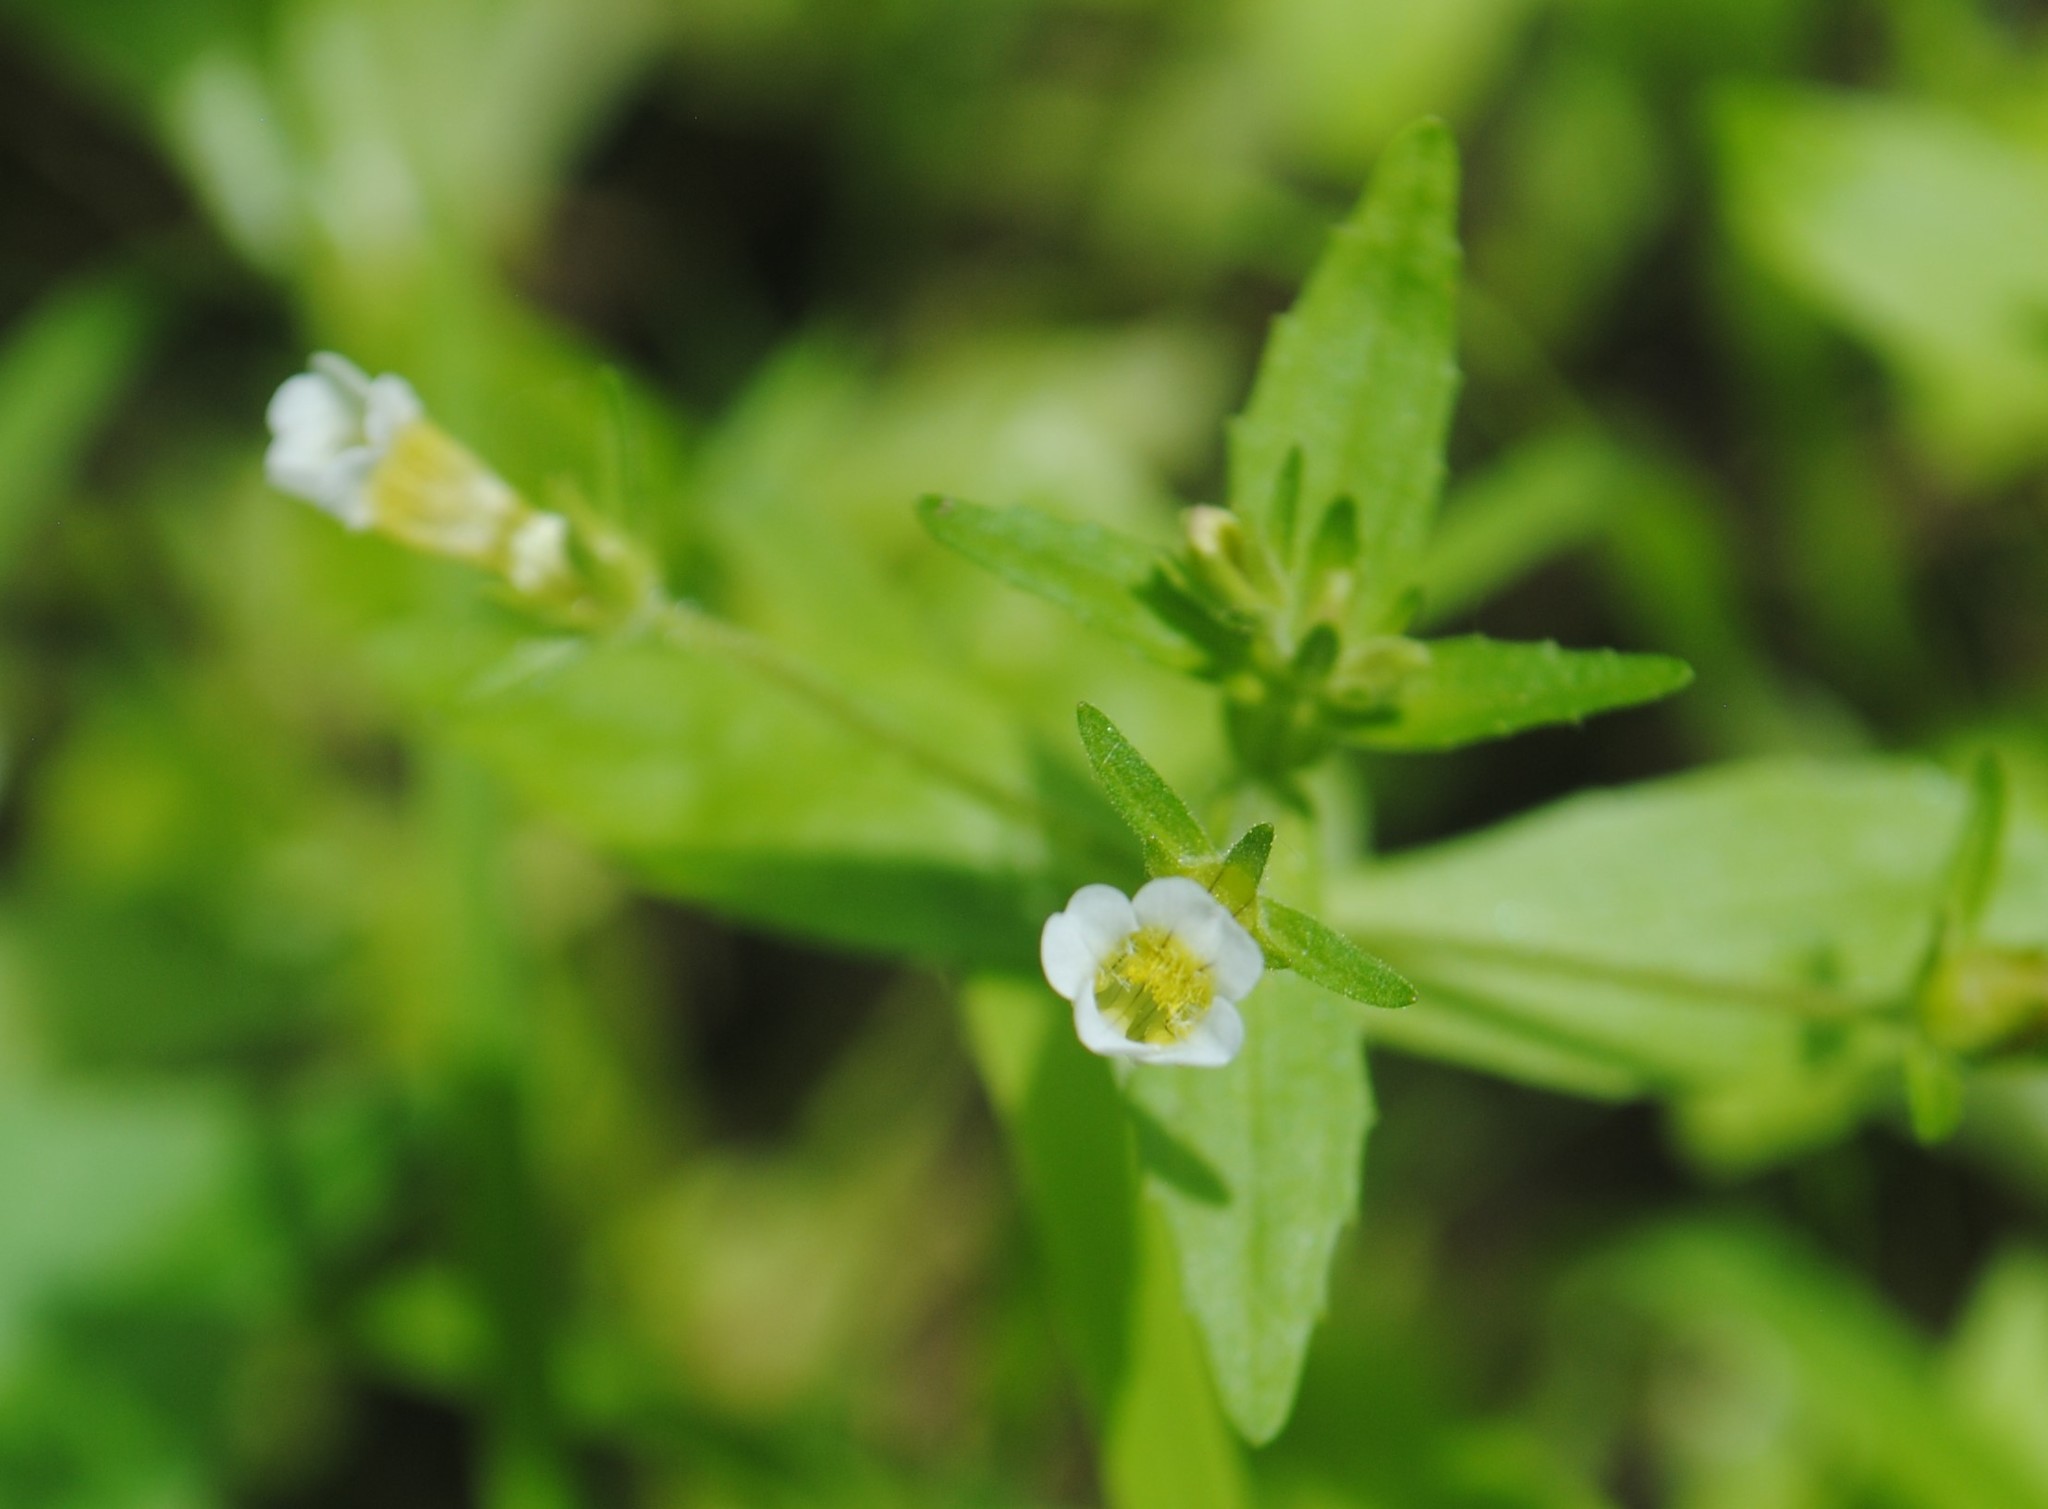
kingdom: Plantae
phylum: Tracheophyta
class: Magnoliopsida
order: Lamiales
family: Plantaginaceae
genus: Gratiola
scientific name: Gratiola neglecta
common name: American hedge-hyssop
